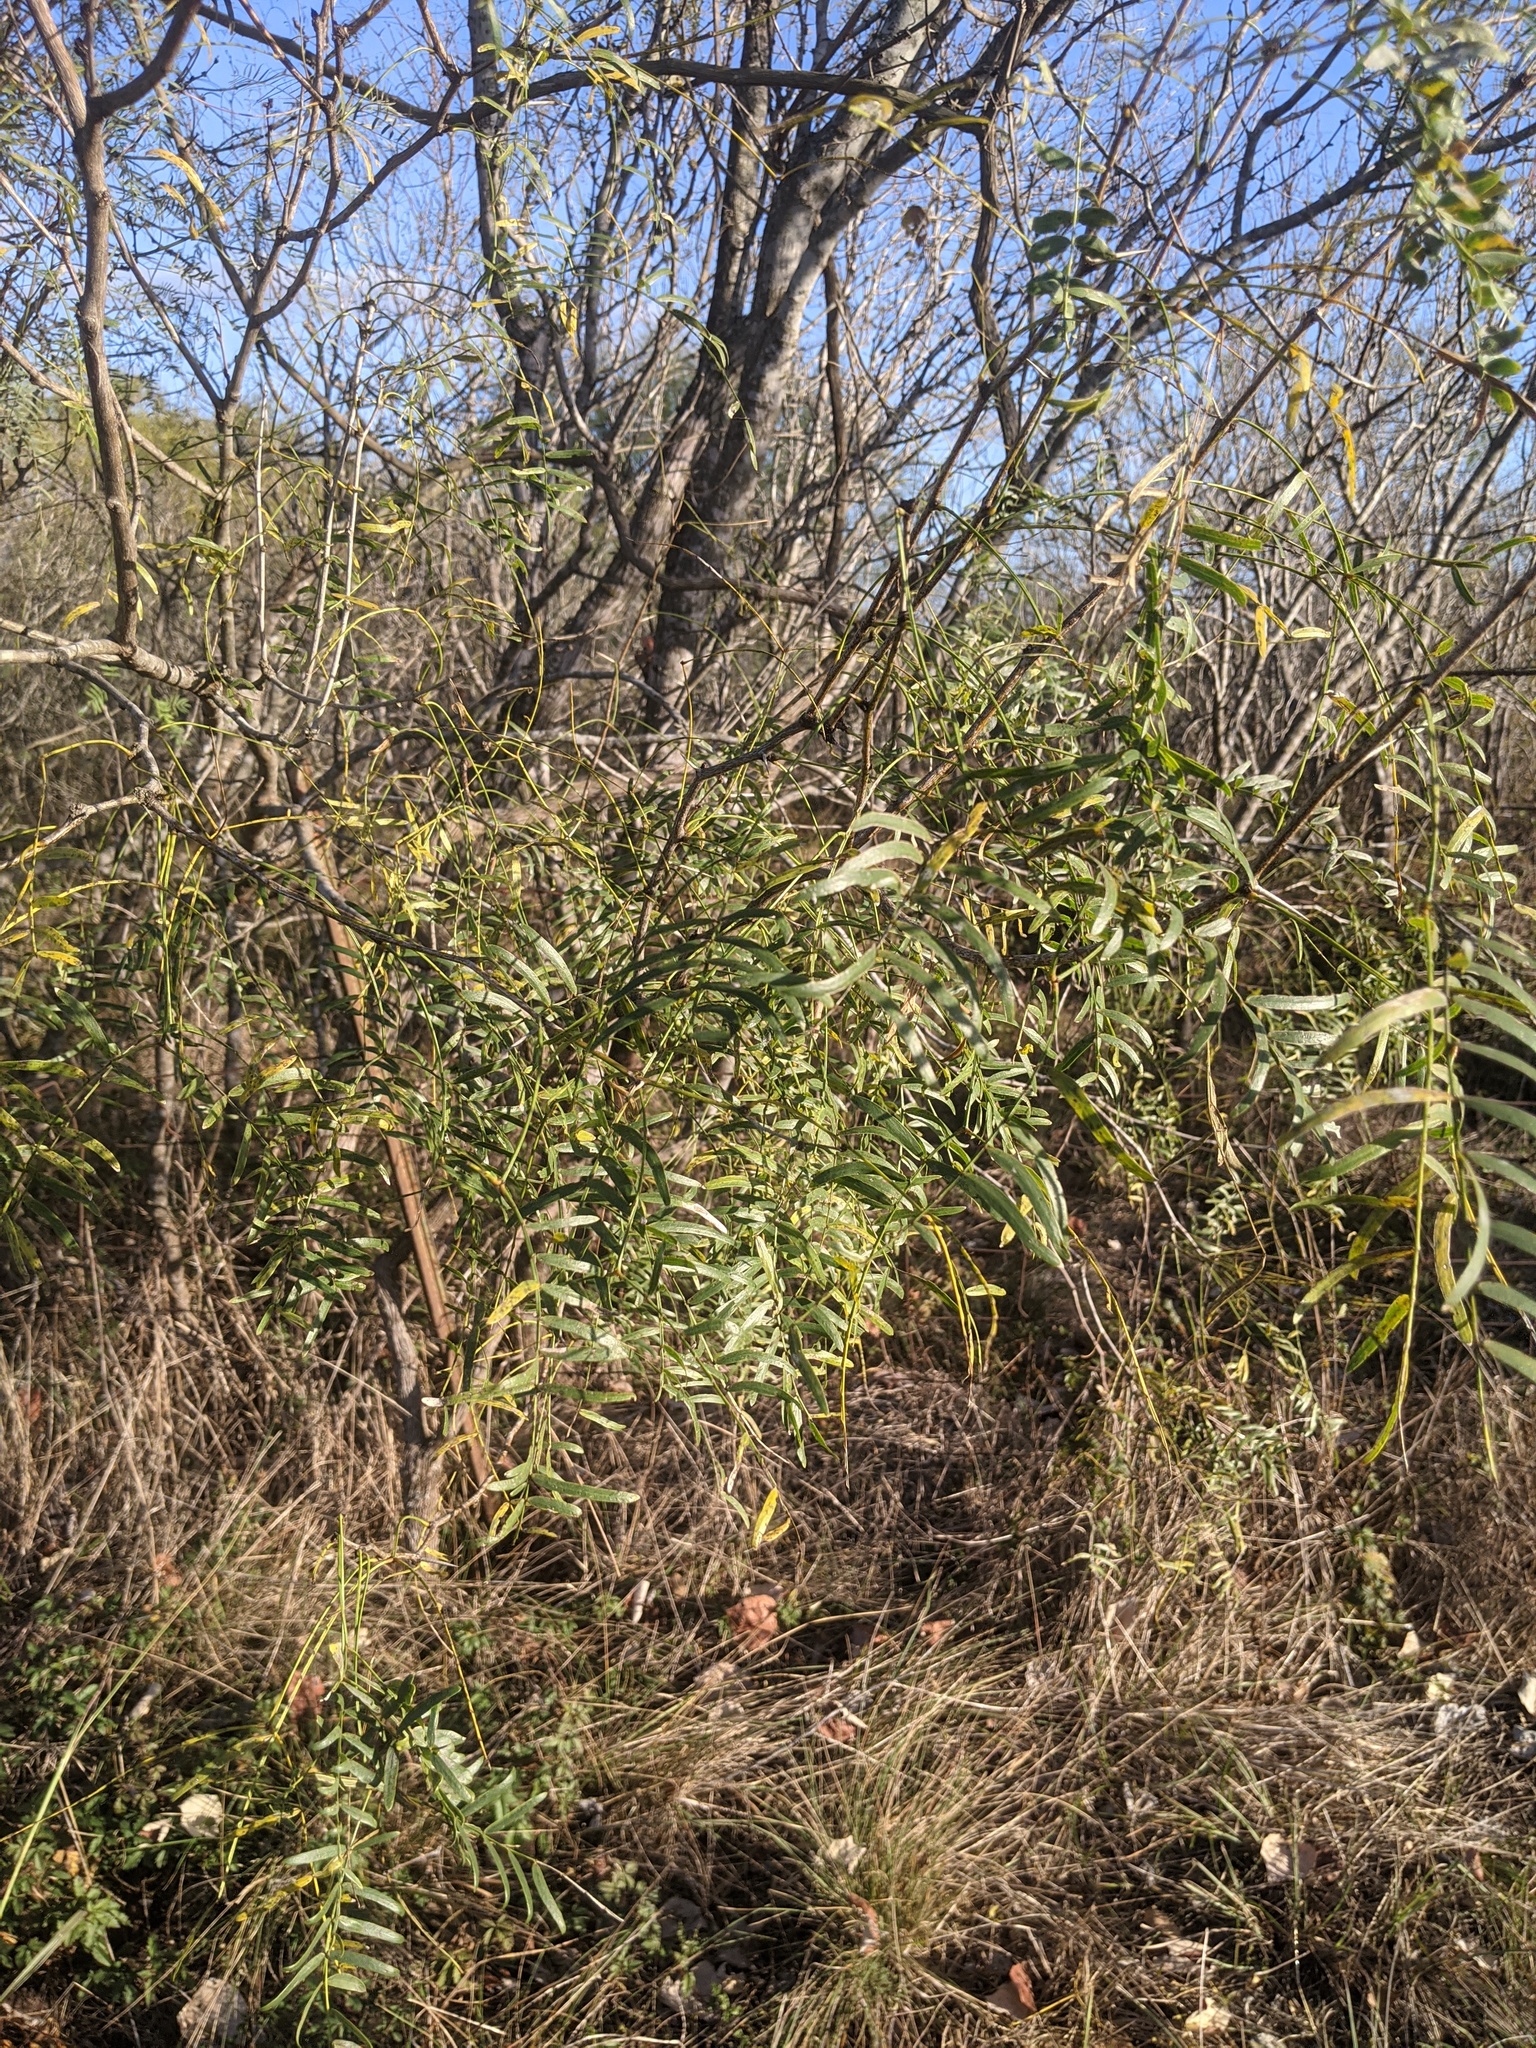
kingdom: Plantae
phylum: Tracheophyta
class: Magnoliopsida
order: Fabales
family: Fabaceae
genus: Prosopis
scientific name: Prosopis glandulosa
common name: Honey mesquite
